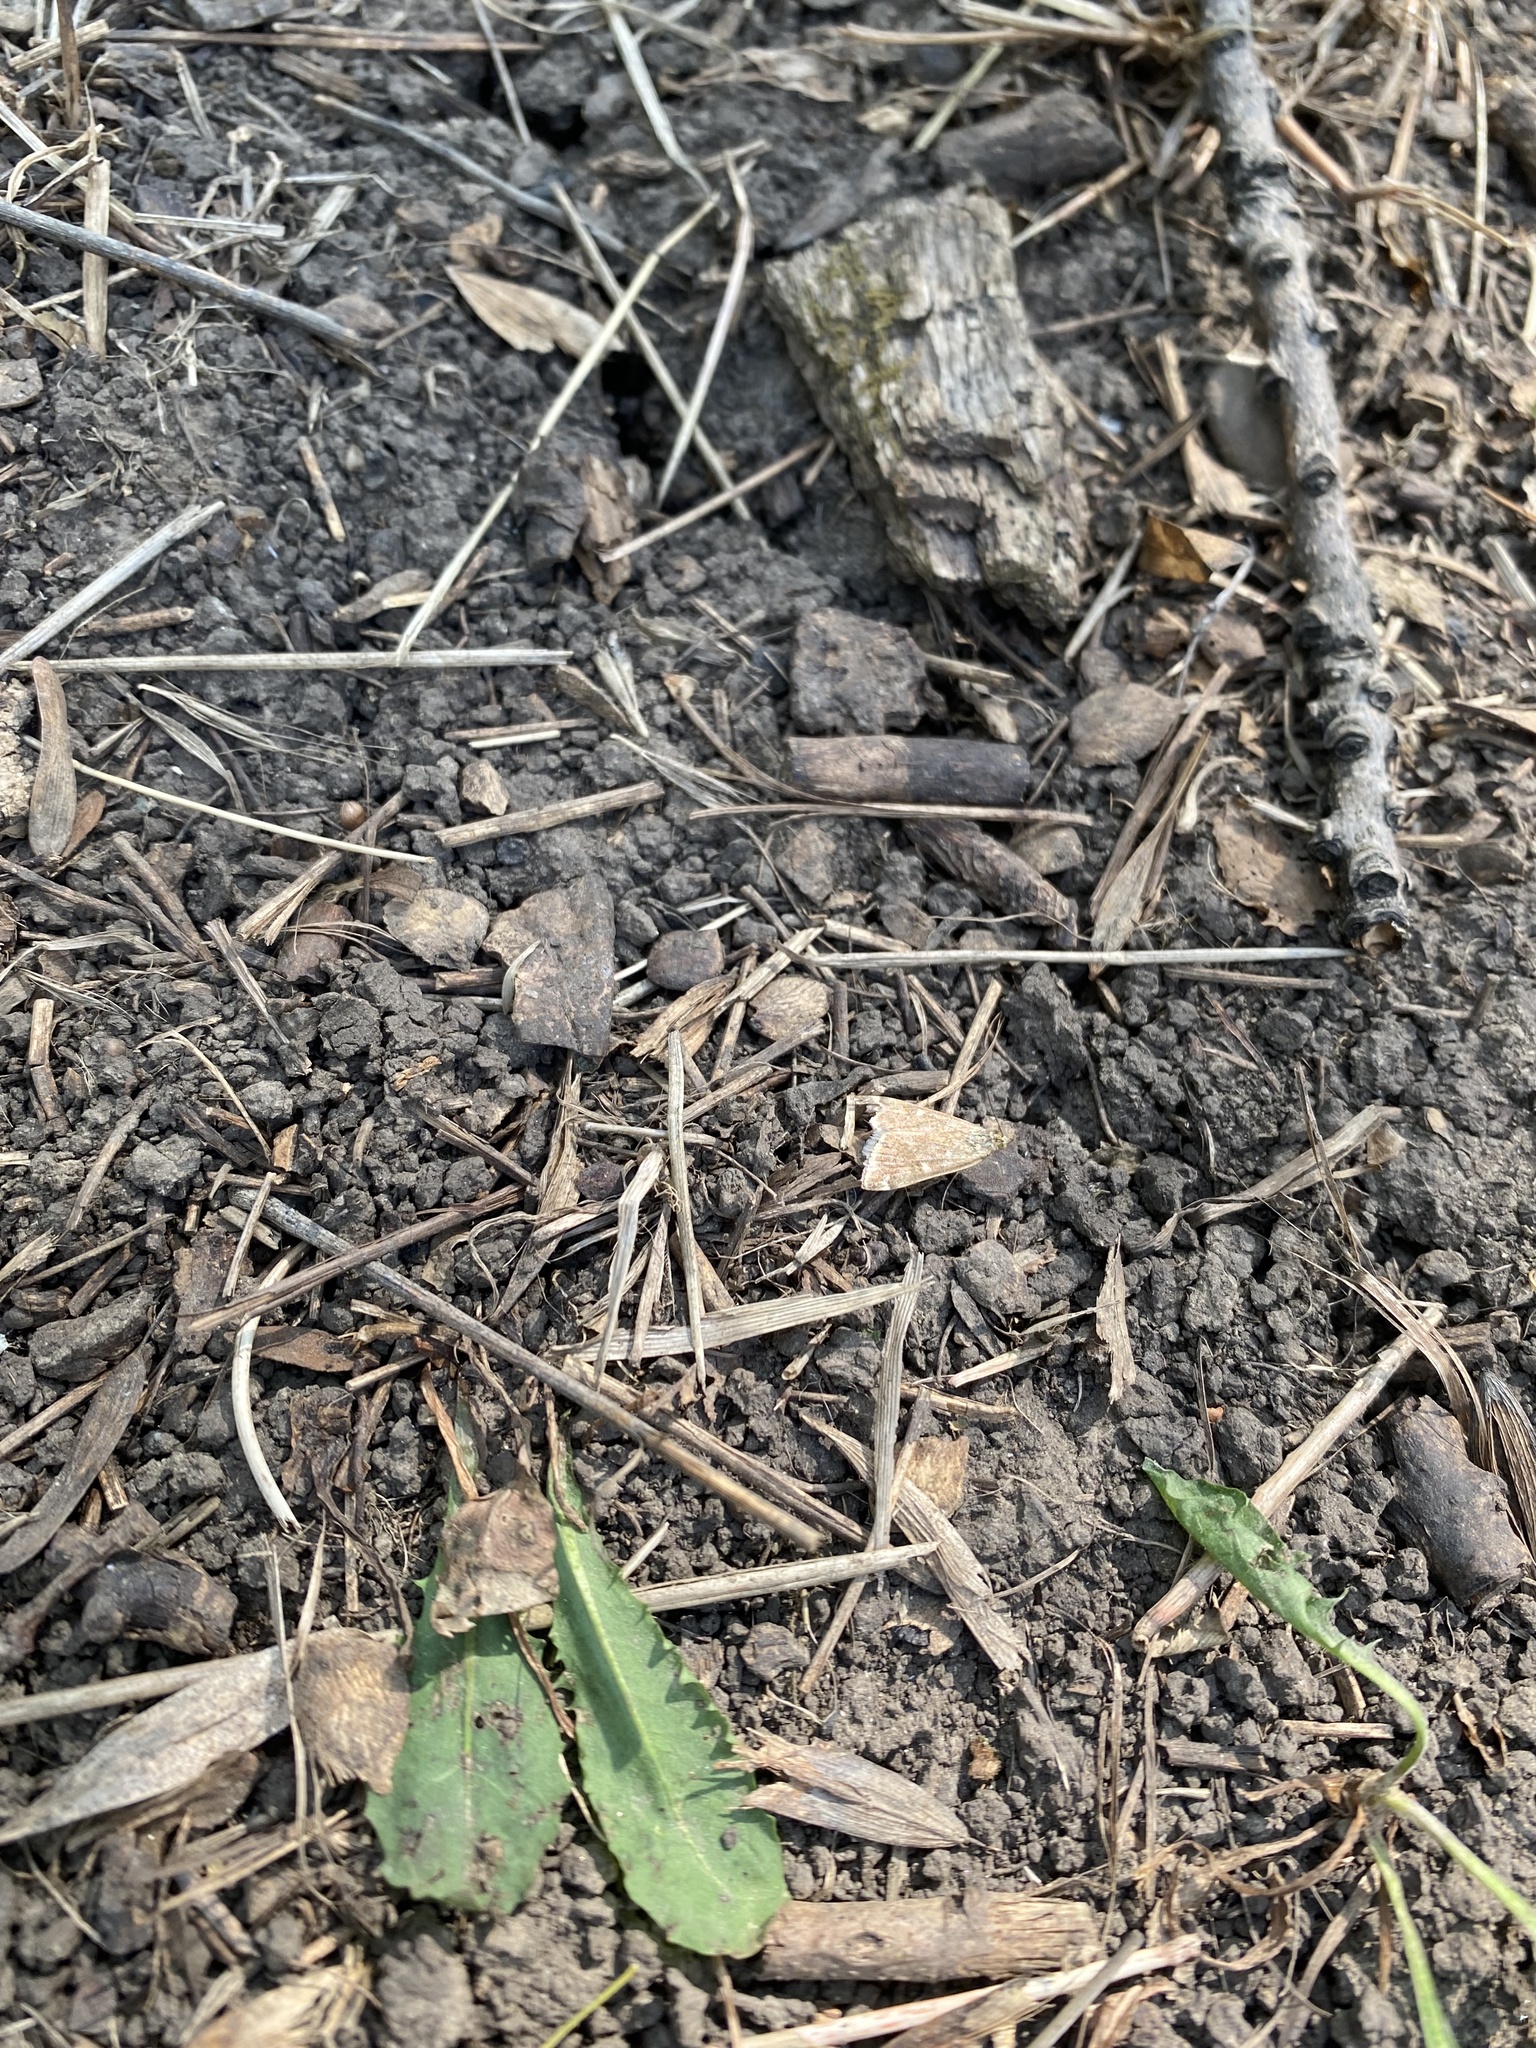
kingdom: Animalia
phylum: Arthropoda
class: Insecta
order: Lepidoptera
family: Crambidae
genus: Loxostege
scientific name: Loxostege sticticalis
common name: Crambid moth
